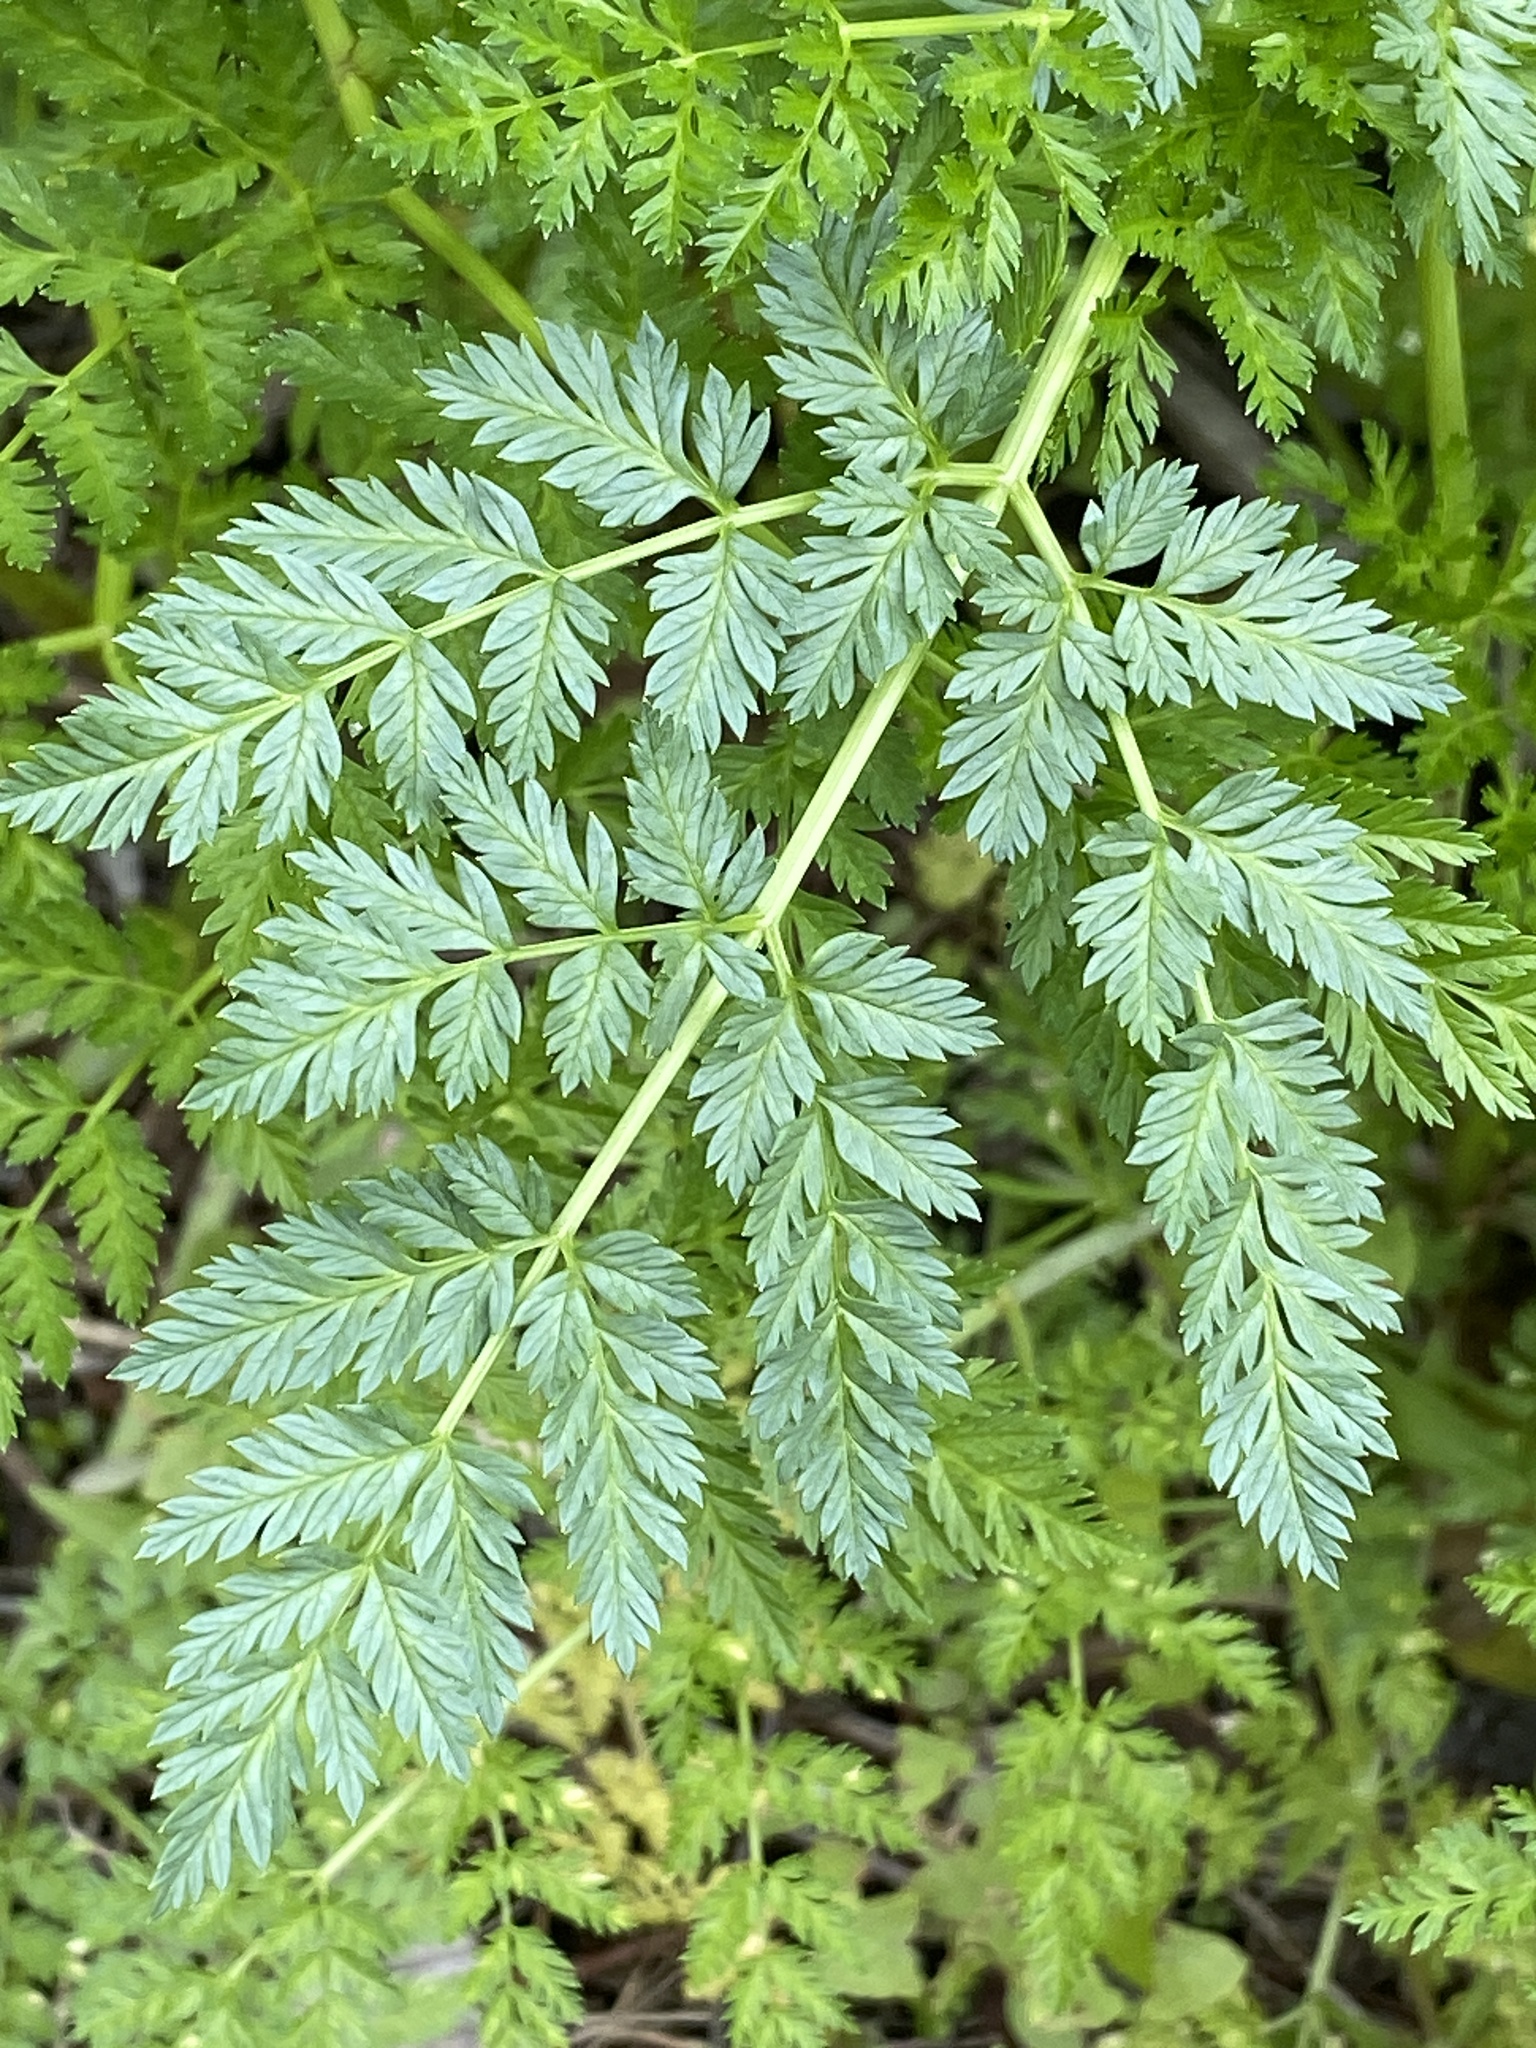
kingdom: Plantae
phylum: Tracheophyta
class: Magnoliopsida
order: Apiales
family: Apiaceae
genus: Conium
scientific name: Conium maculatum
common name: Hemlock
